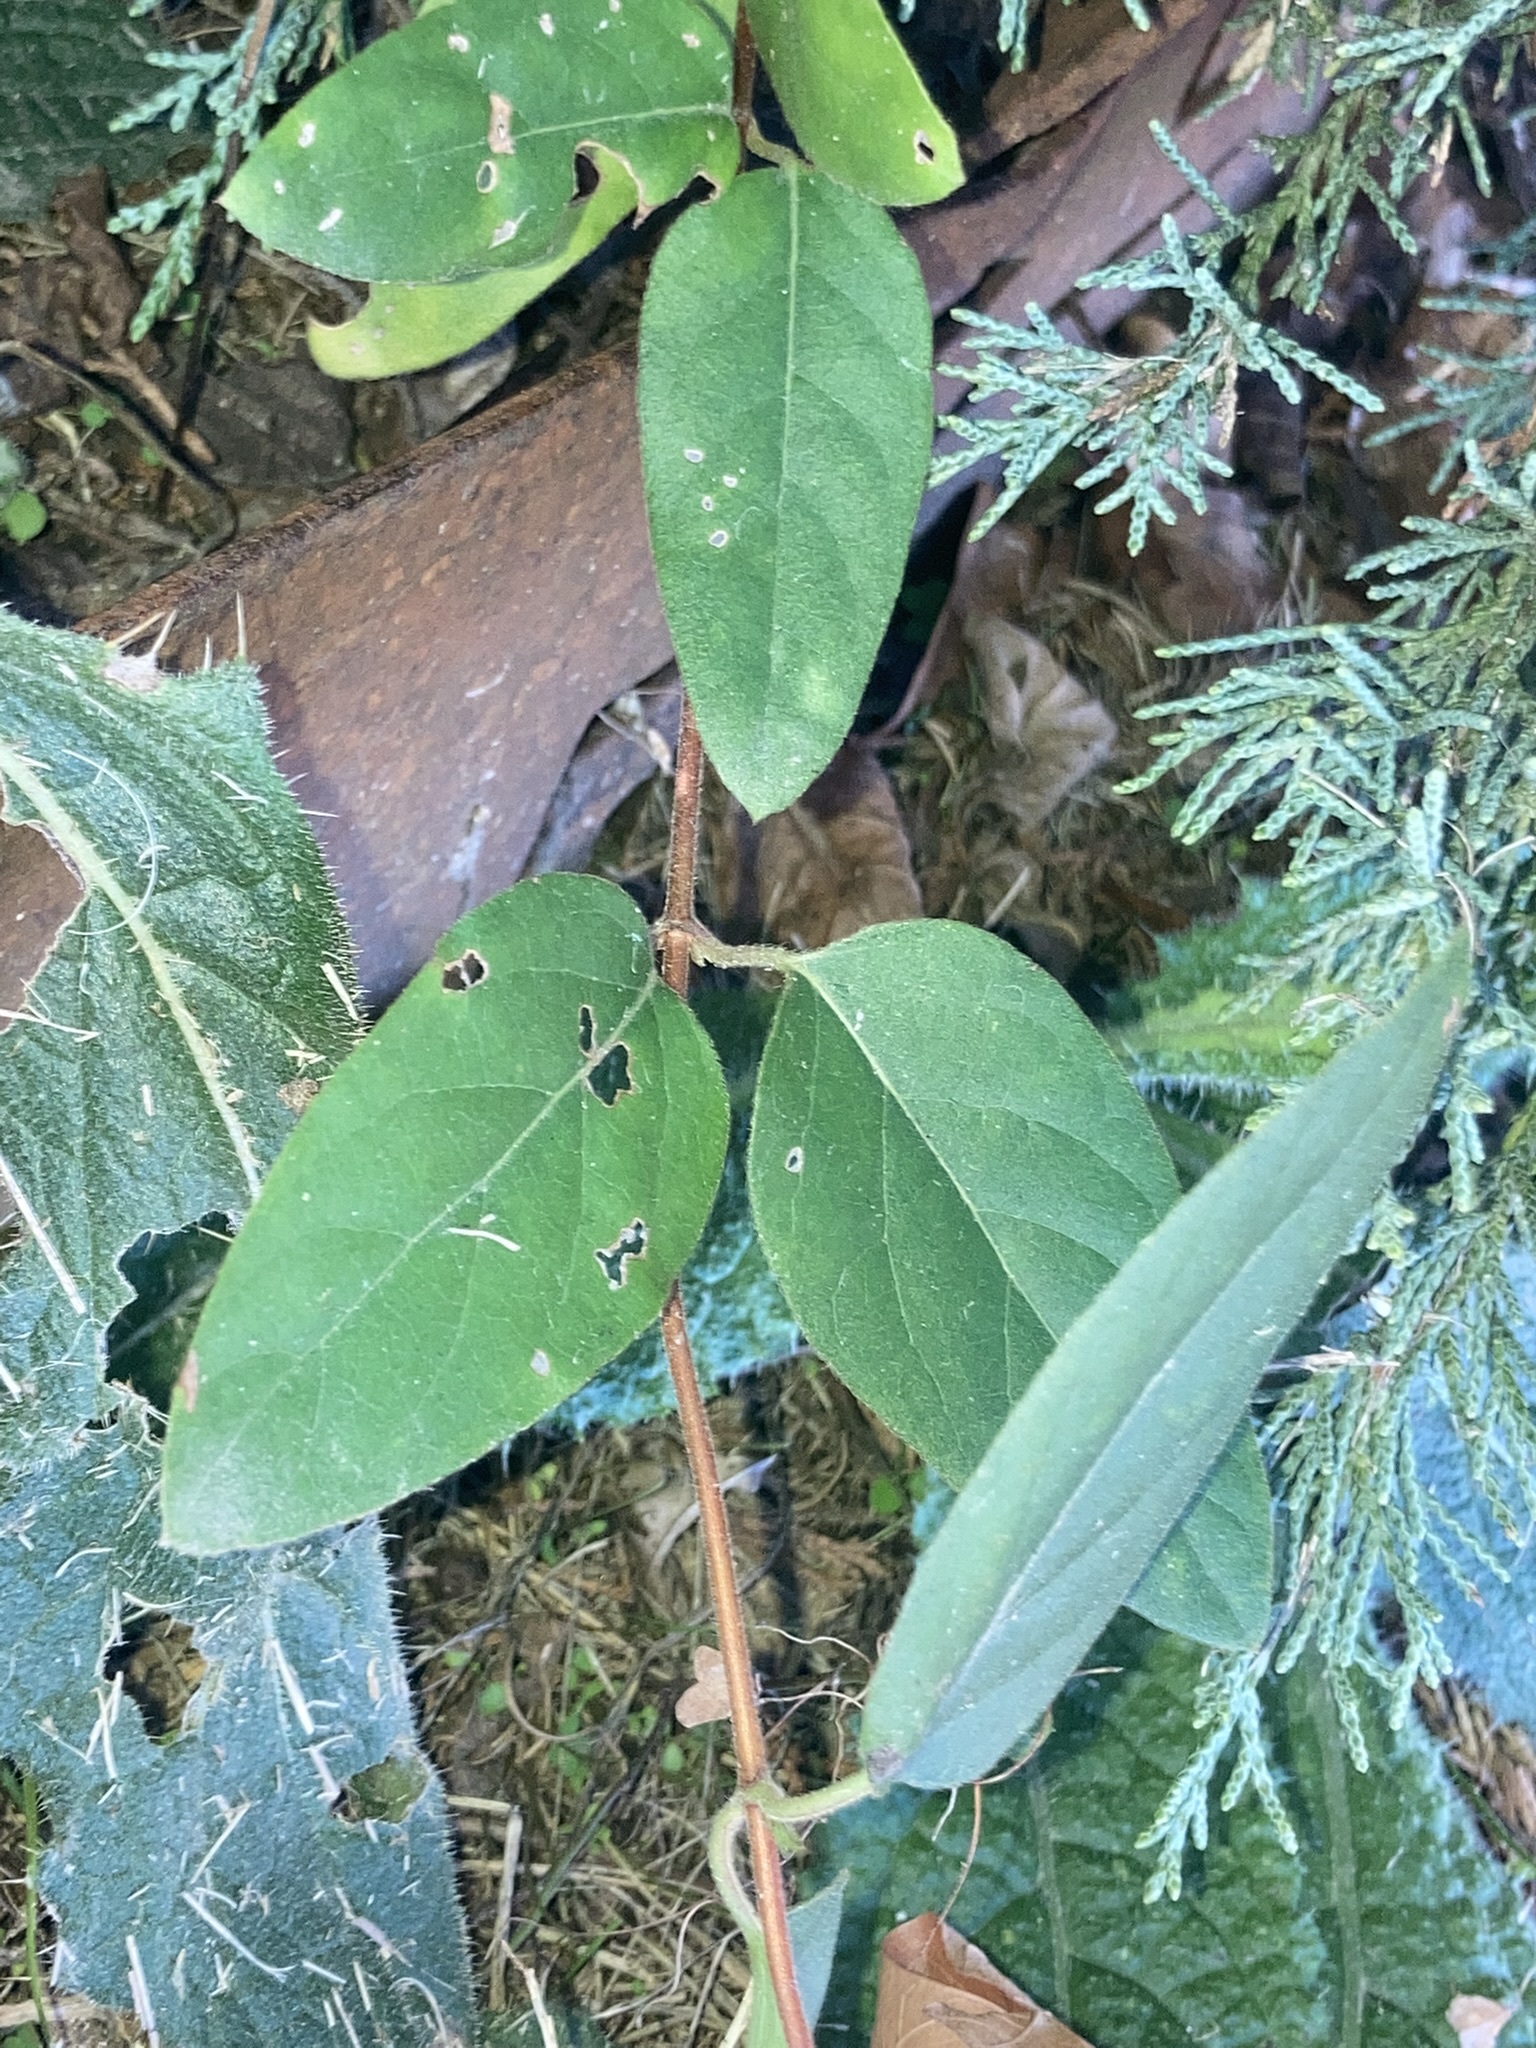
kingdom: Plantae
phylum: Tracheophyta
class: Magnoliopsida
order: Dipsacales
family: Caprifoliaceae
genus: Lonicera
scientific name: Lonicera japonica
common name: Japanese honeysuckle
